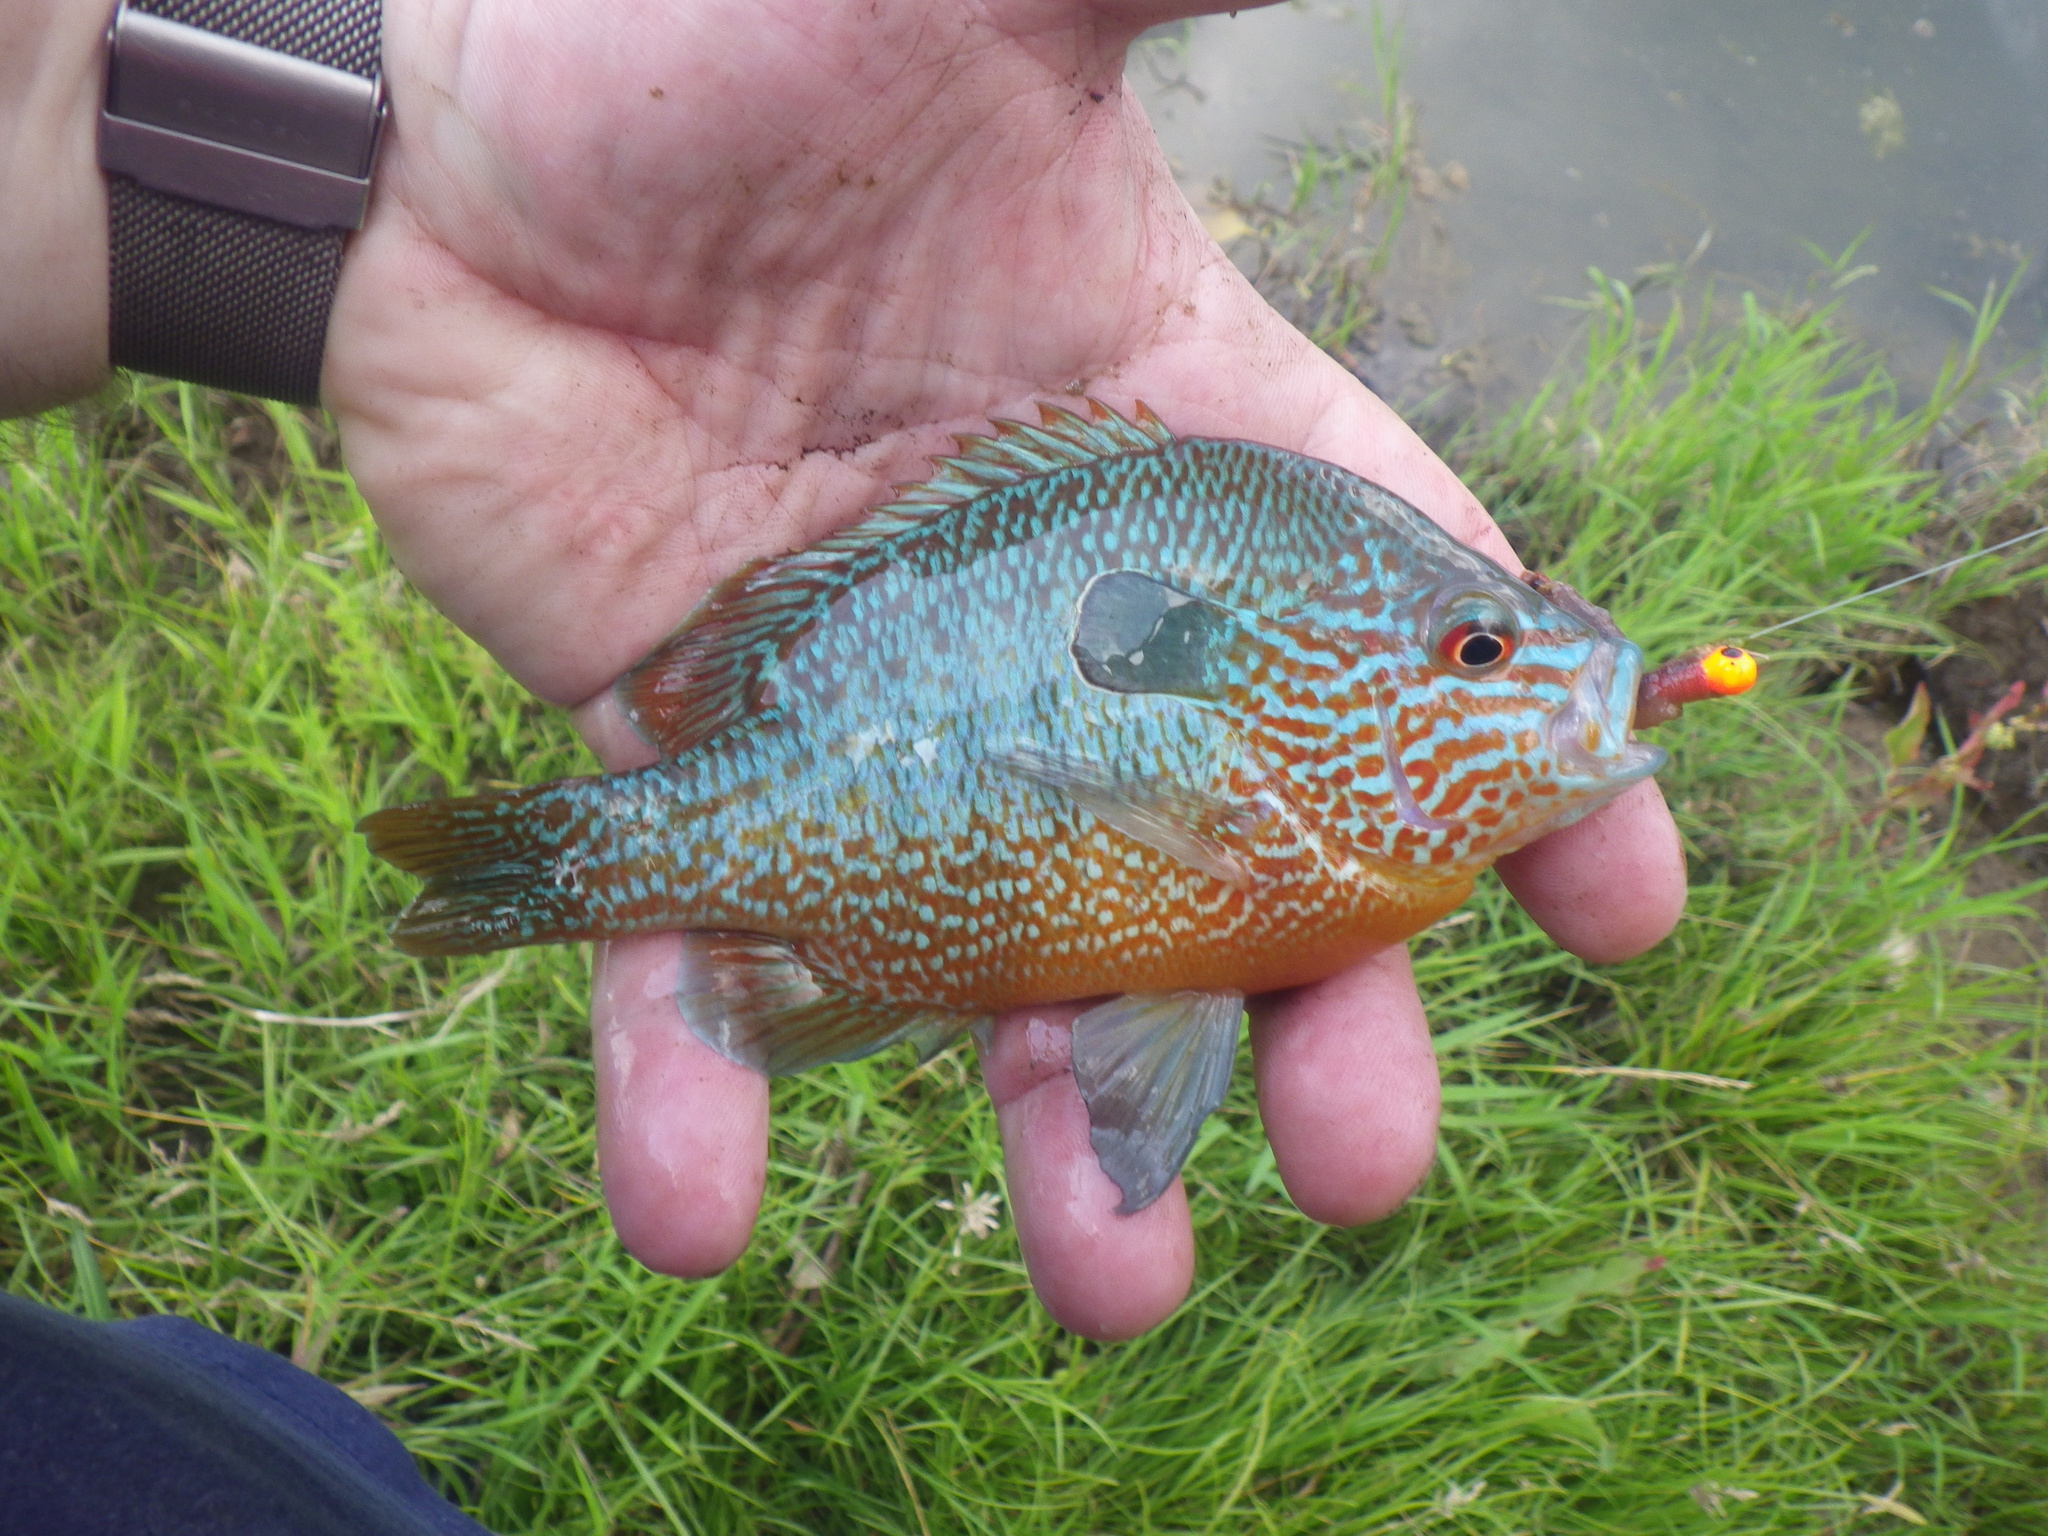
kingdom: Animalia
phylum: Chordata
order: Perciformes
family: Centrarchidae
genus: Lepomis
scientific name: Lepomis megalotis
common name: Longear sunfish
